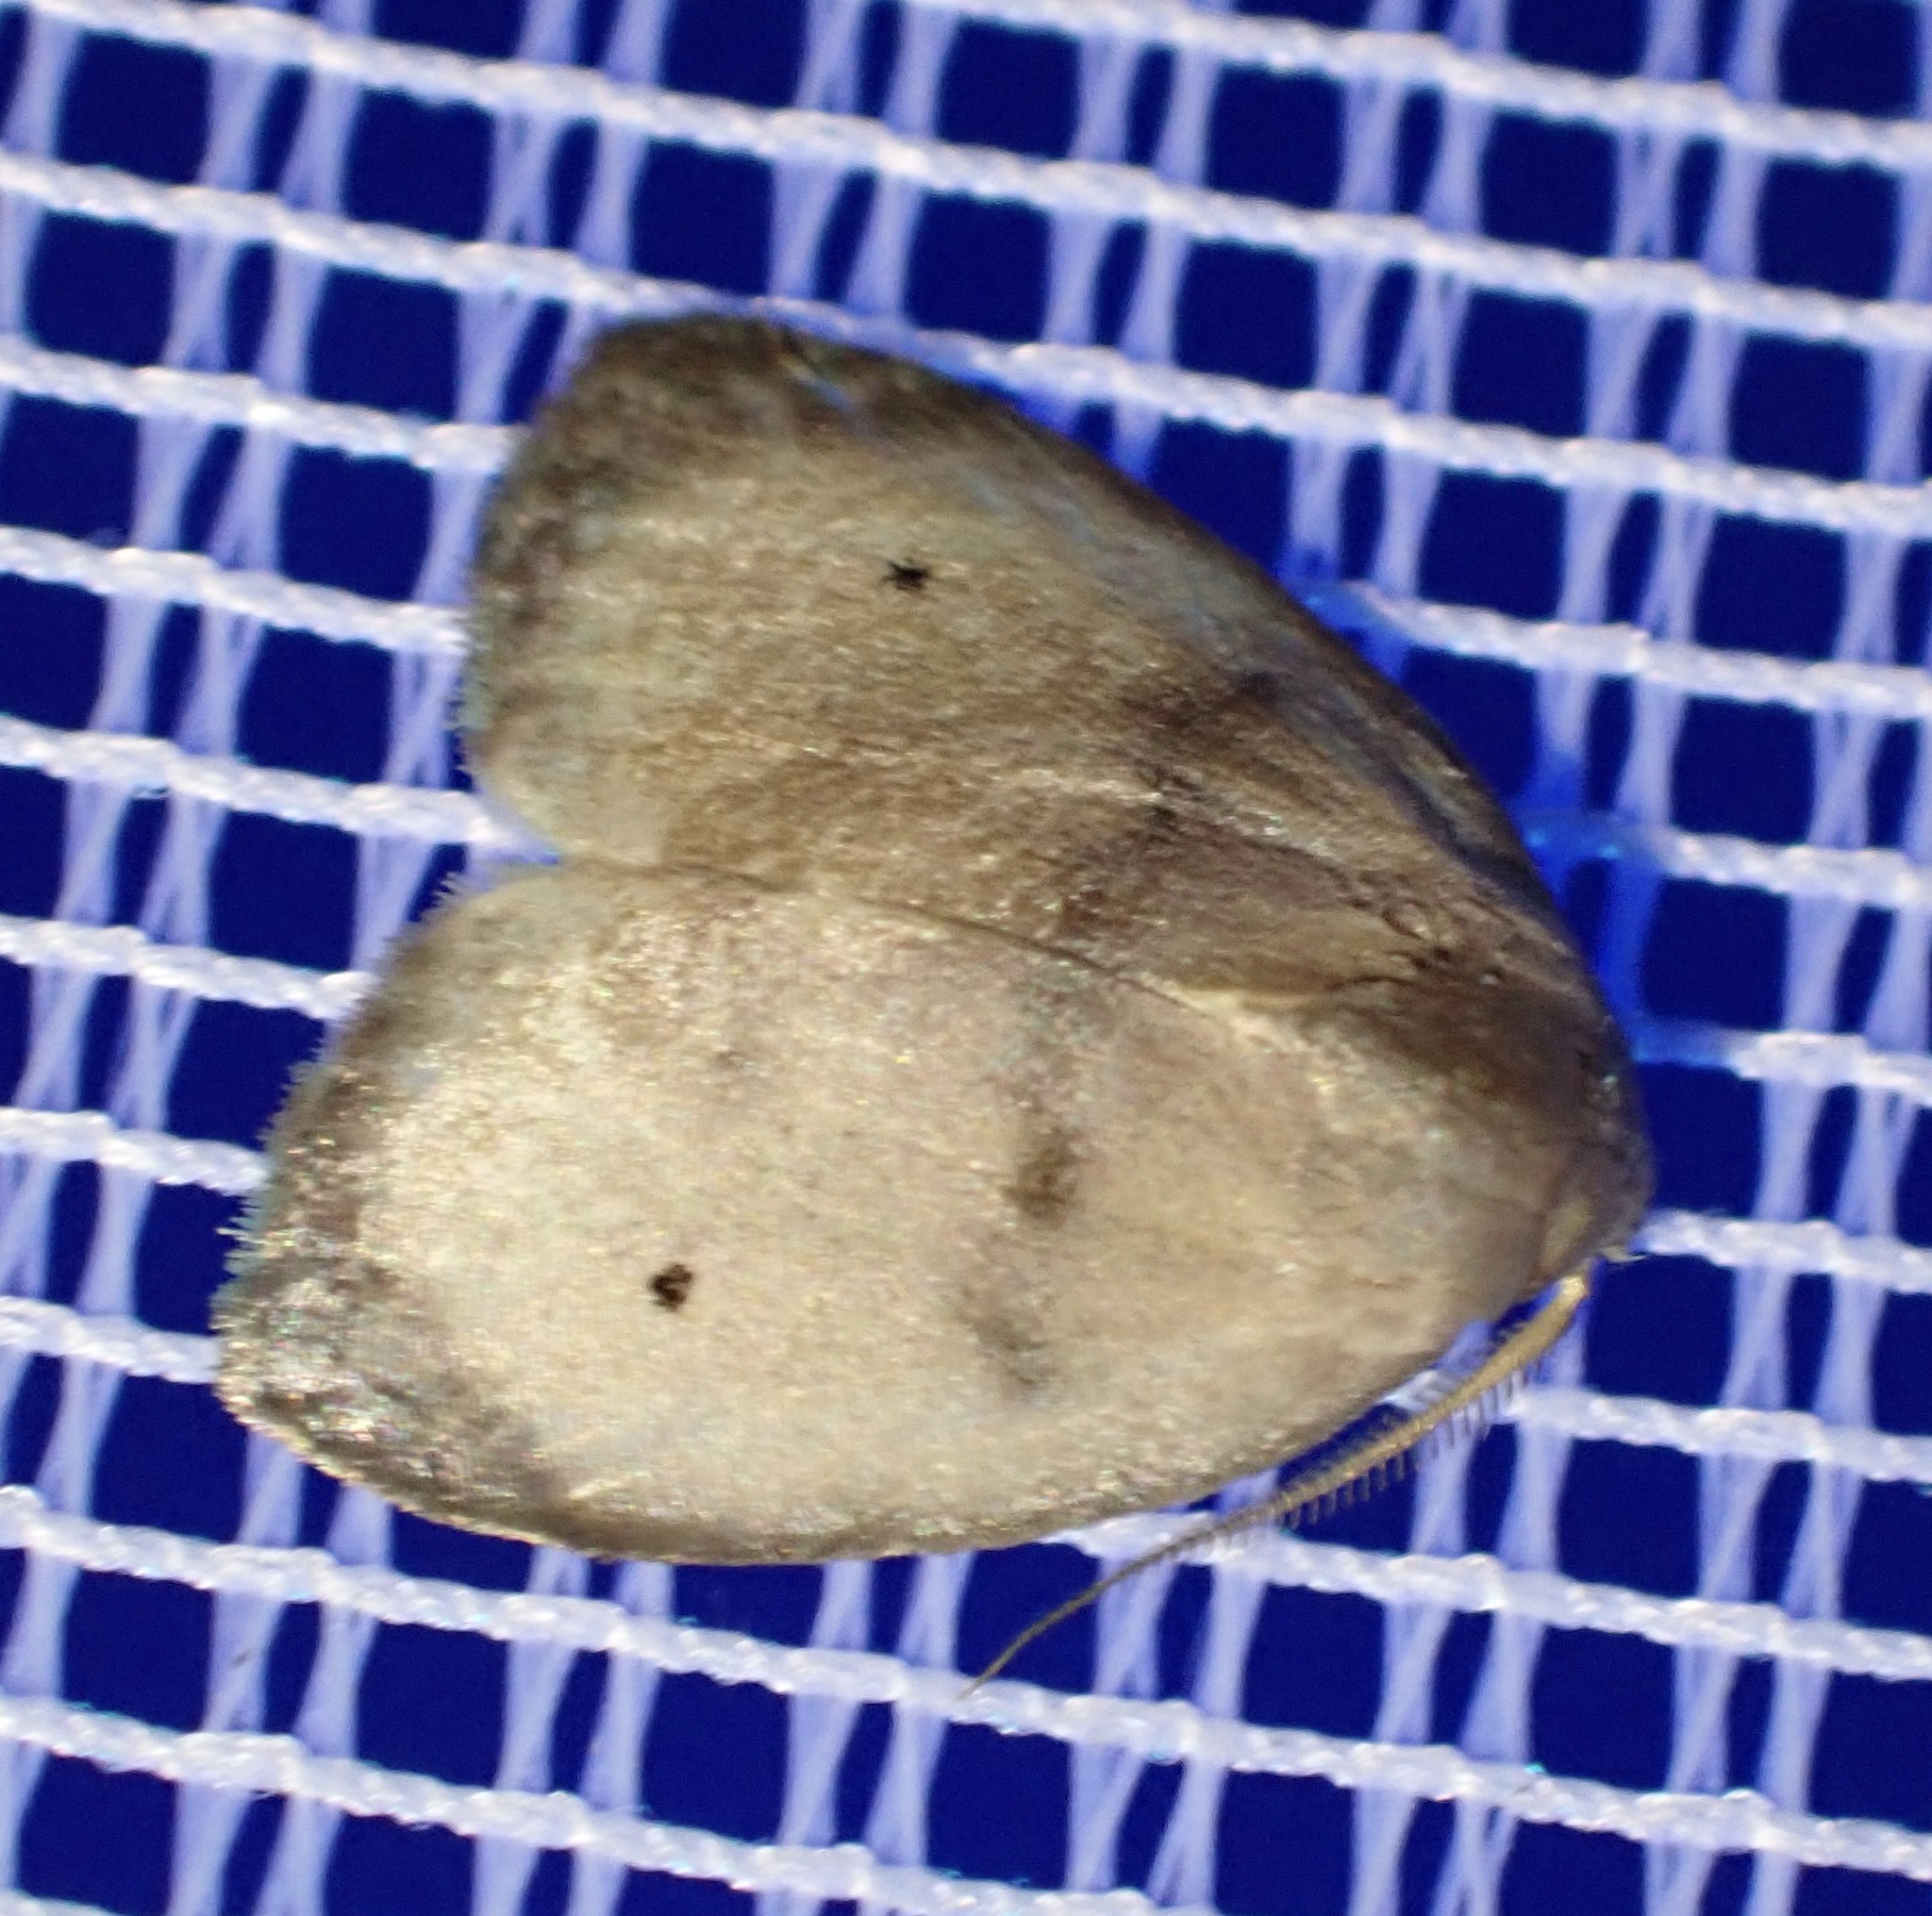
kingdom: Animalia
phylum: Arthropoda
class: Insecta
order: Lepidoptera
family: Erebidae
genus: Hemonia
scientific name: Hemonia schistacea
